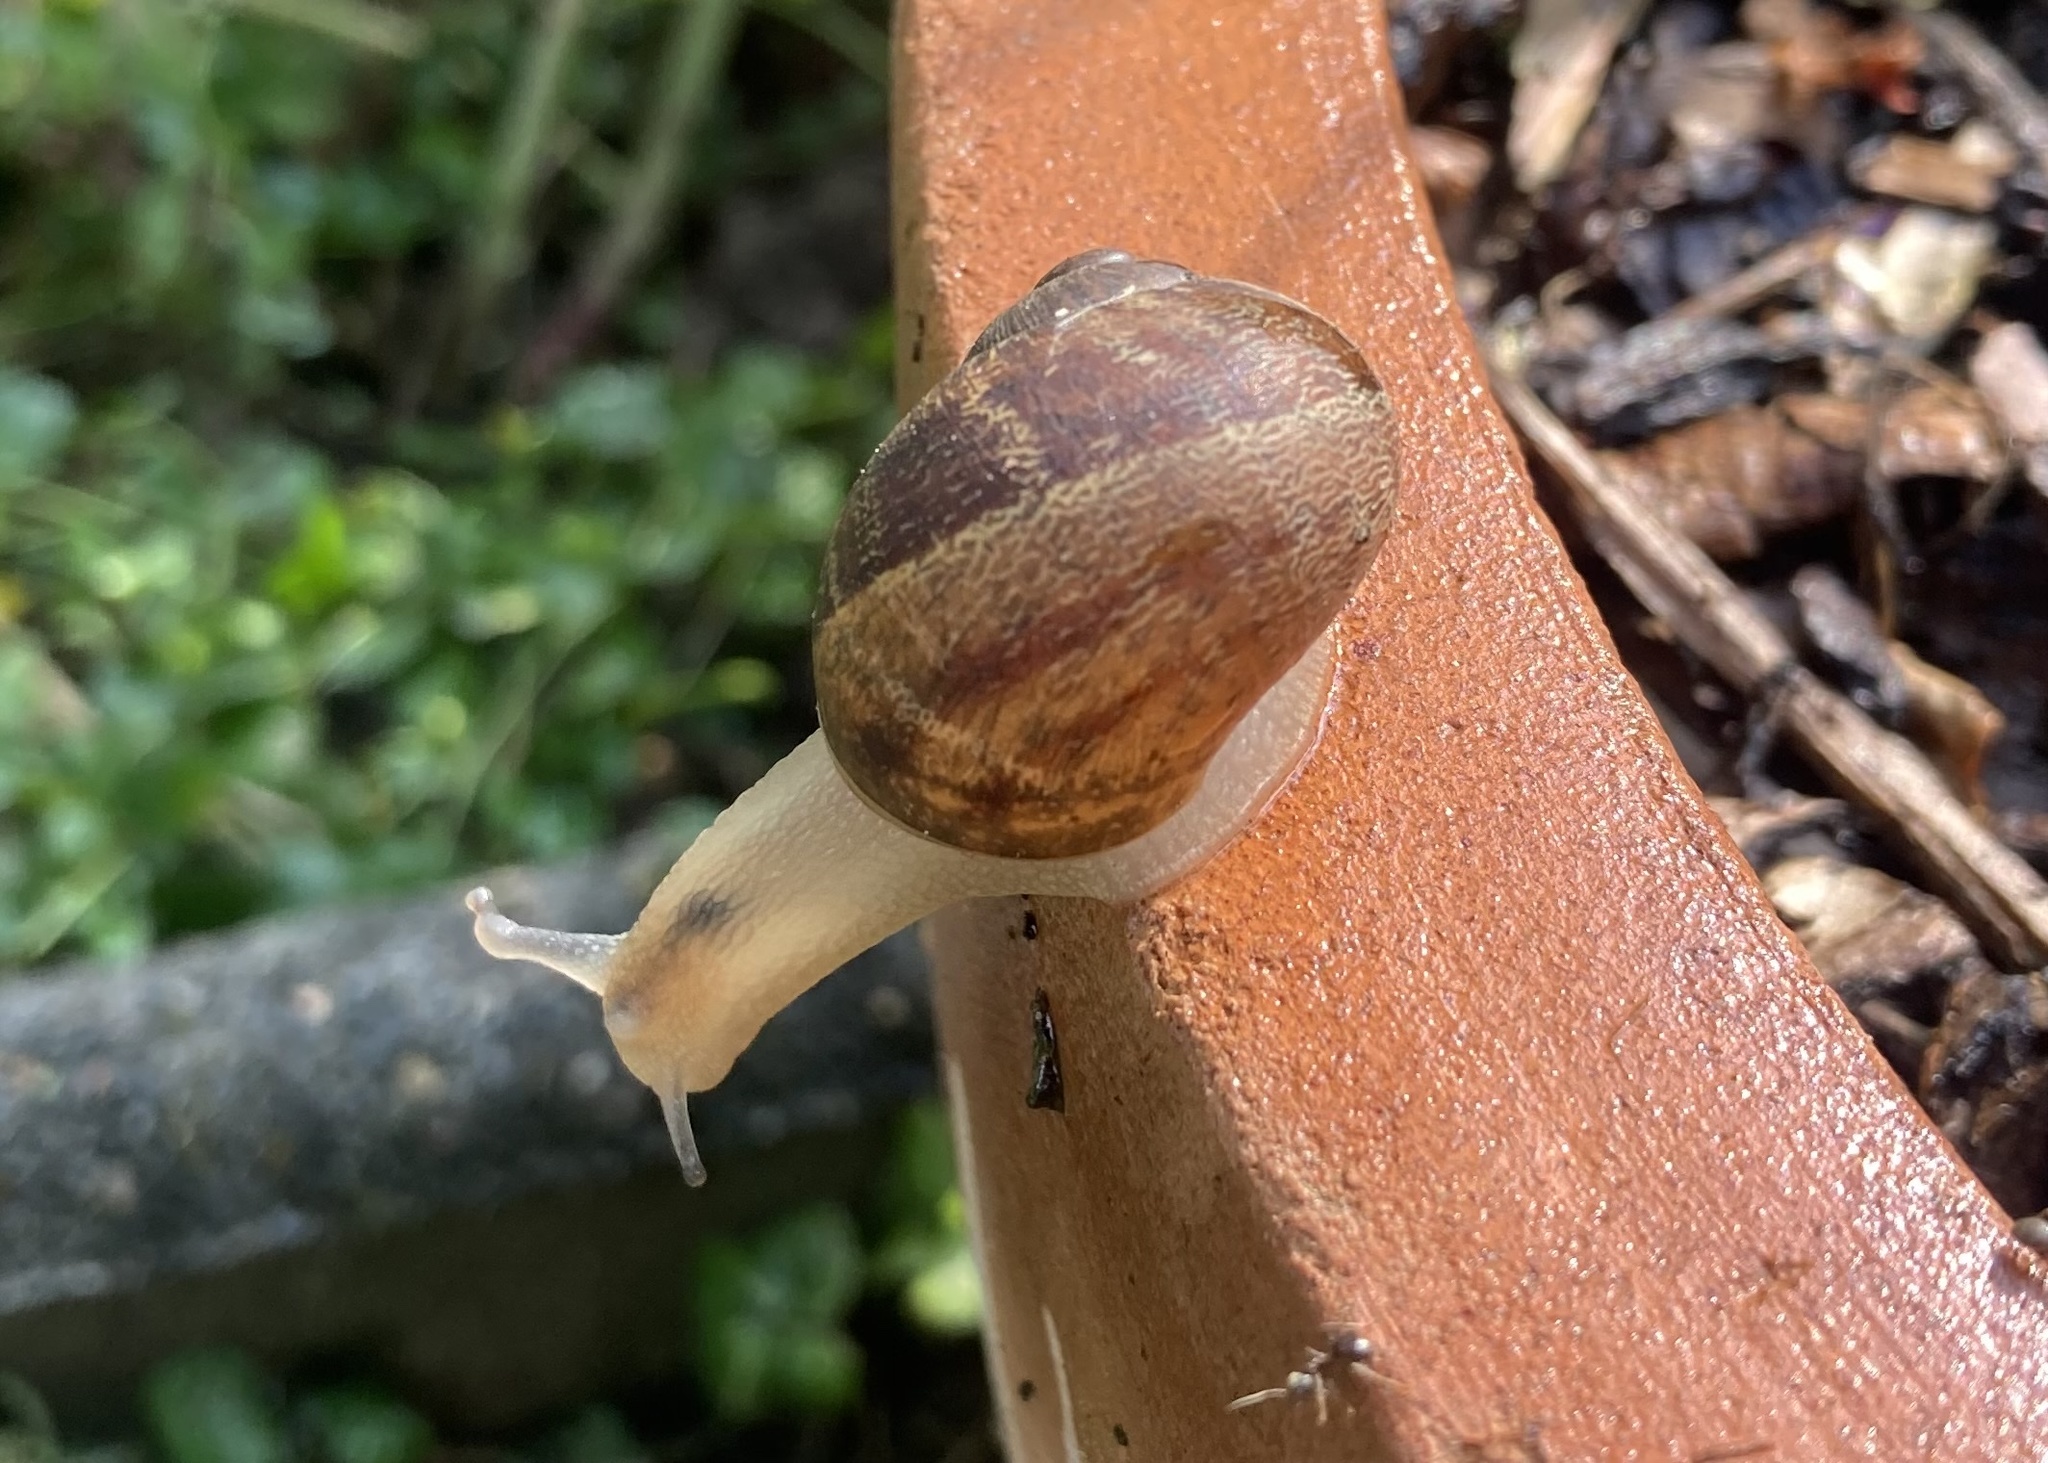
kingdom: Animalia
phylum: Mollusca
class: Gastropoda
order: Stylommatophora
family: Helicidae
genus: Cornu
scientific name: Cornu aspersum
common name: Brown garden snail
